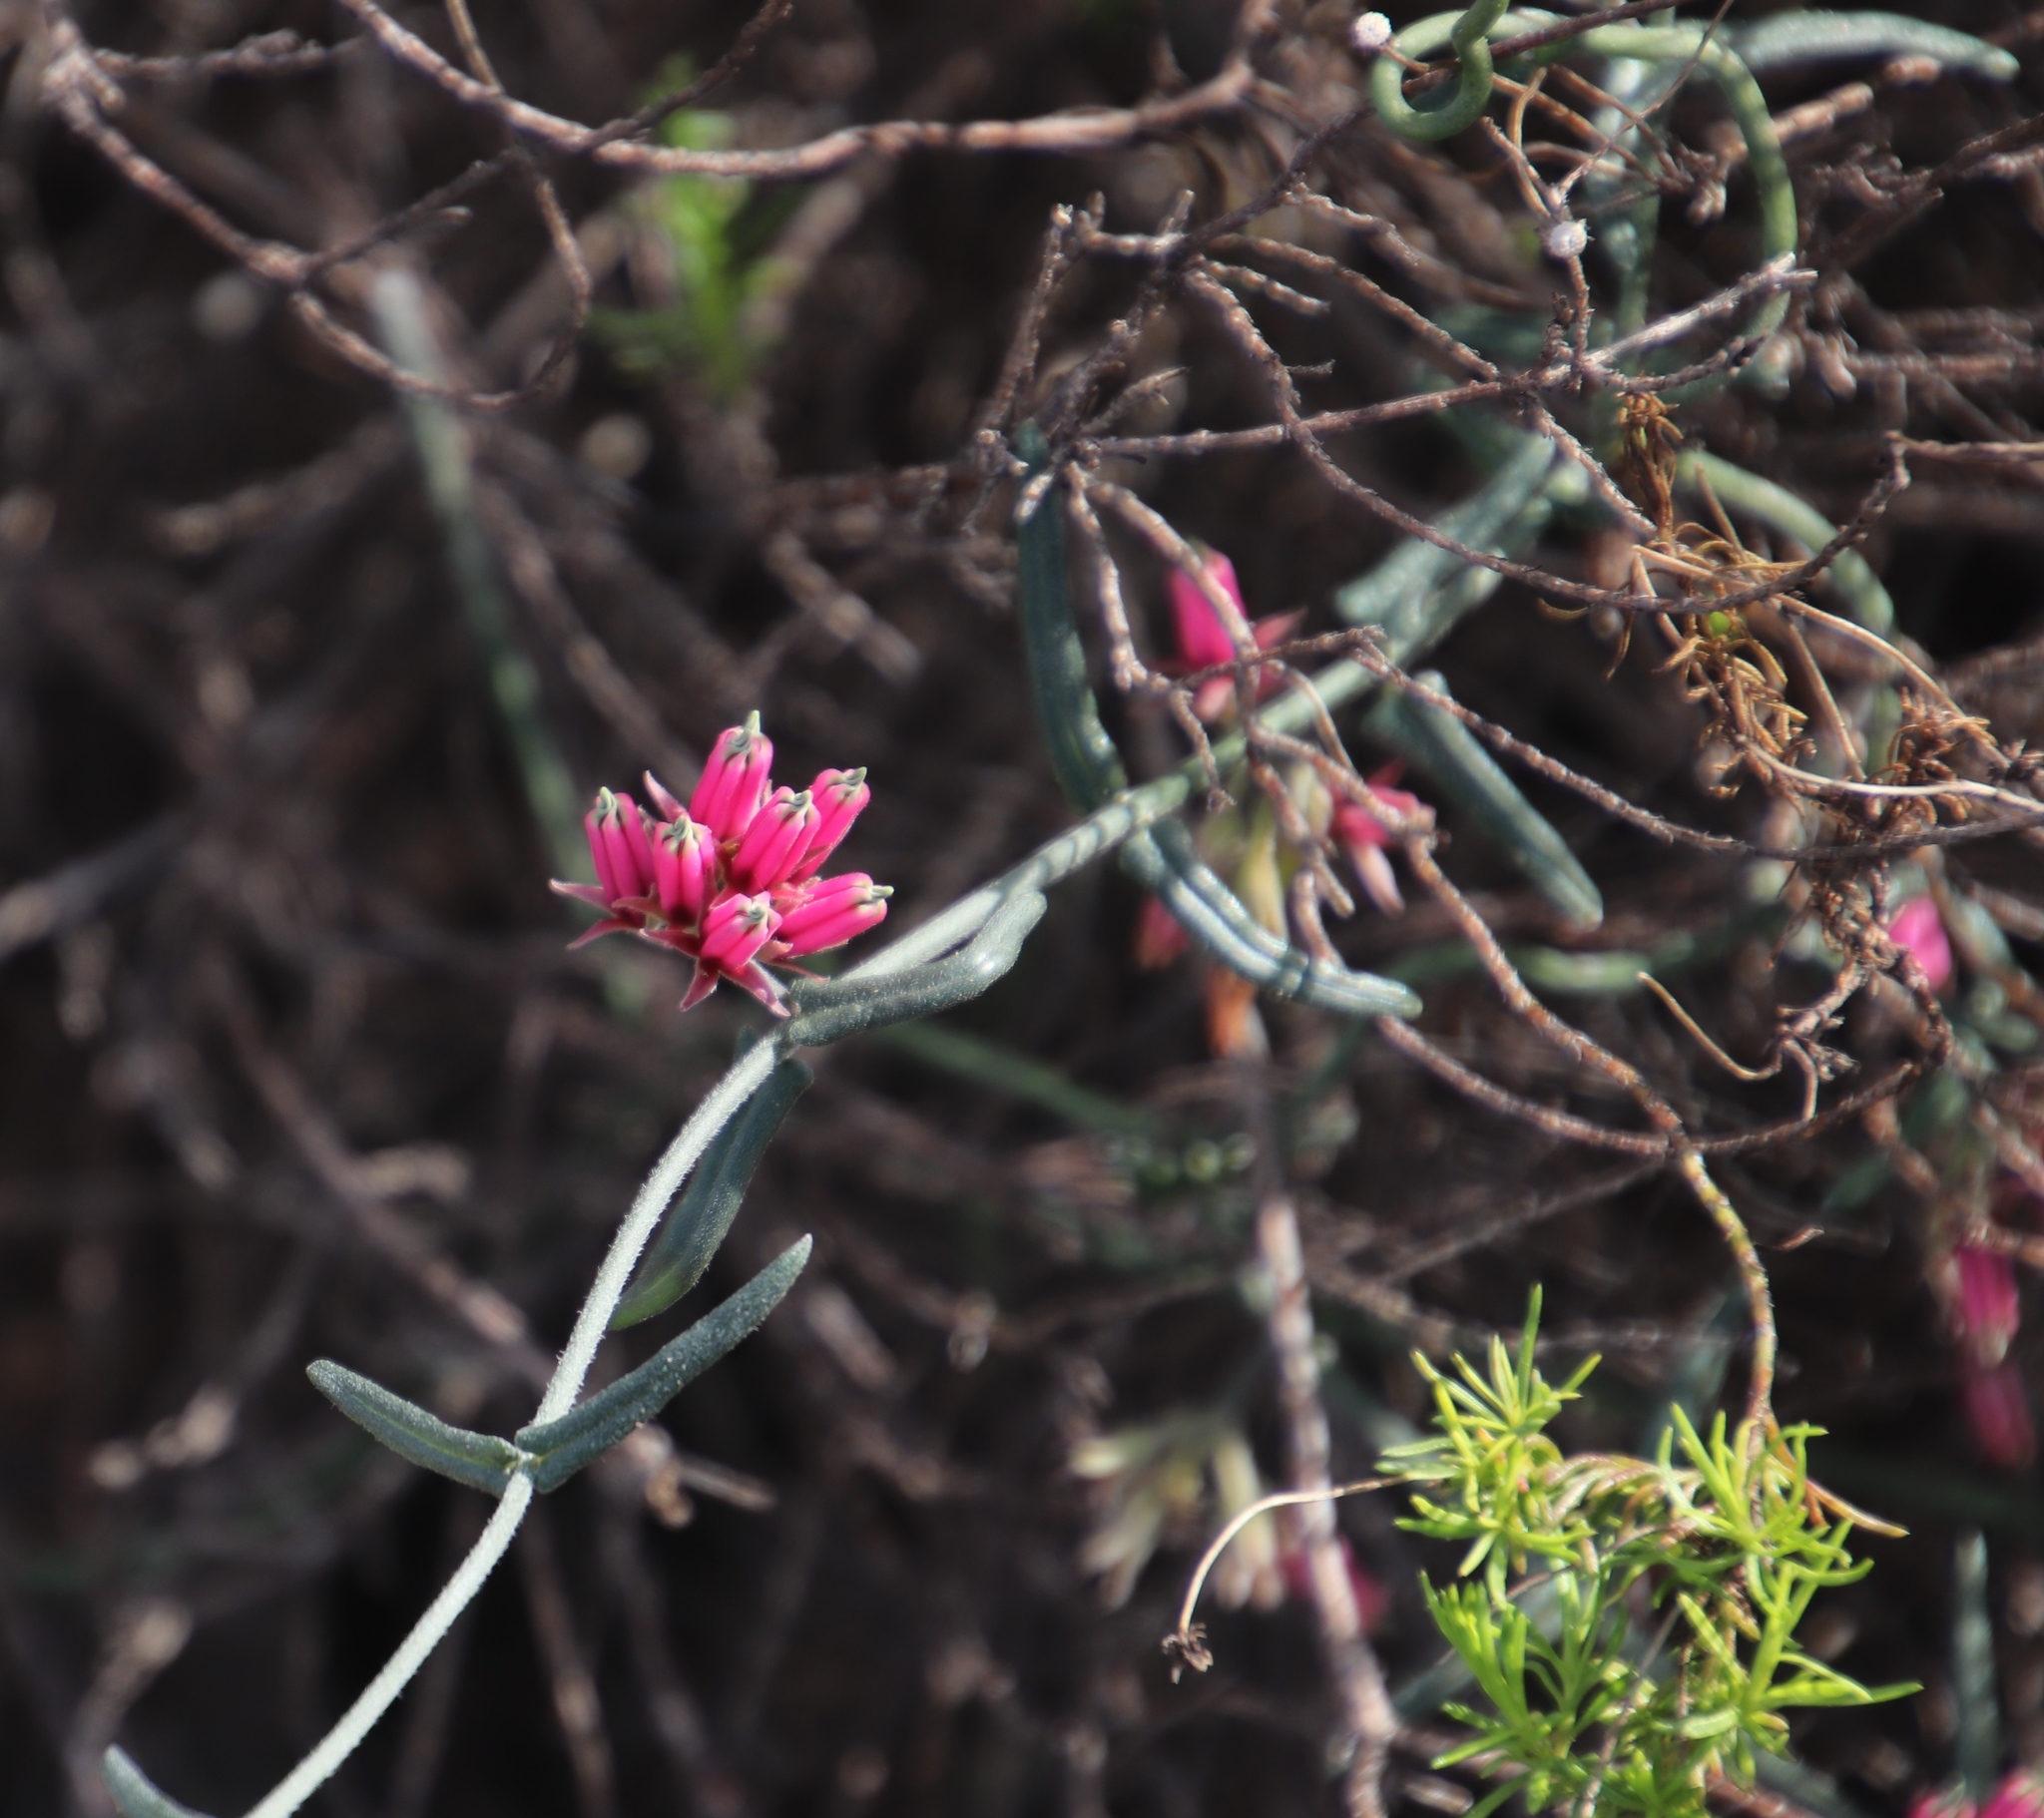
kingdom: Plantae
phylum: Tracheophyta
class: Magnoliopsida
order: Gentianales
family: Apocynaceae
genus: Microloma
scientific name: Microloma sagittatum
